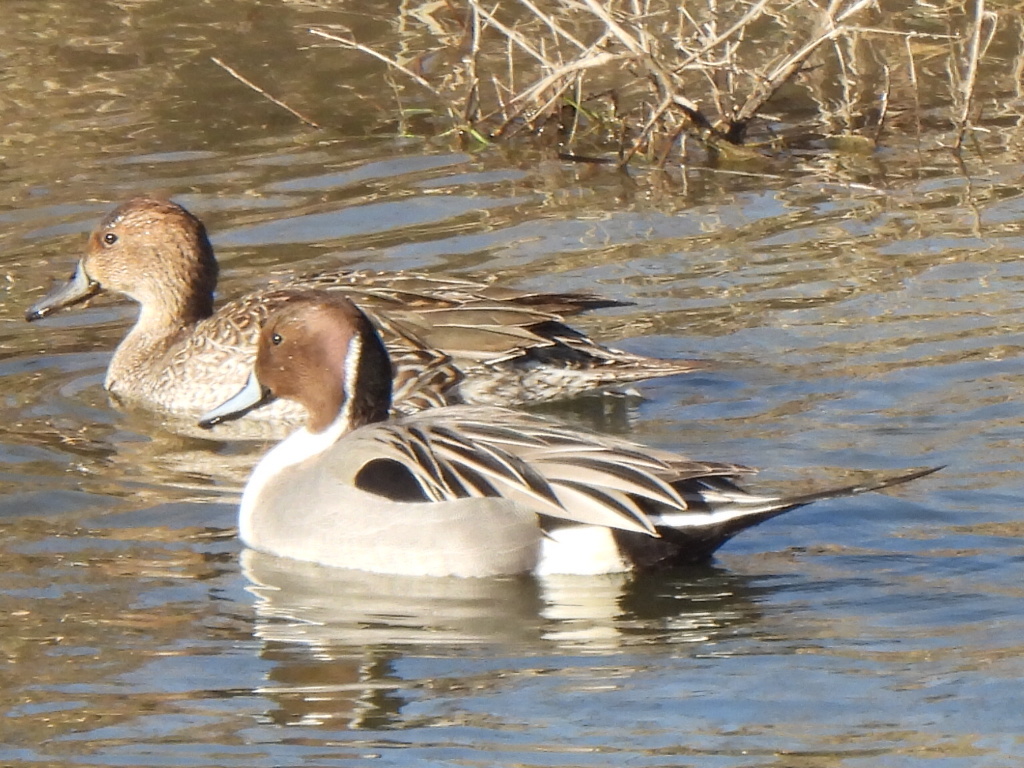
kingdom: Animalia
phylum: Chordata
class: Aves
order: Anseriformes
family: Anatidae
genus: Anas
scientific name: Anas acuta
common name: Northern pintail
